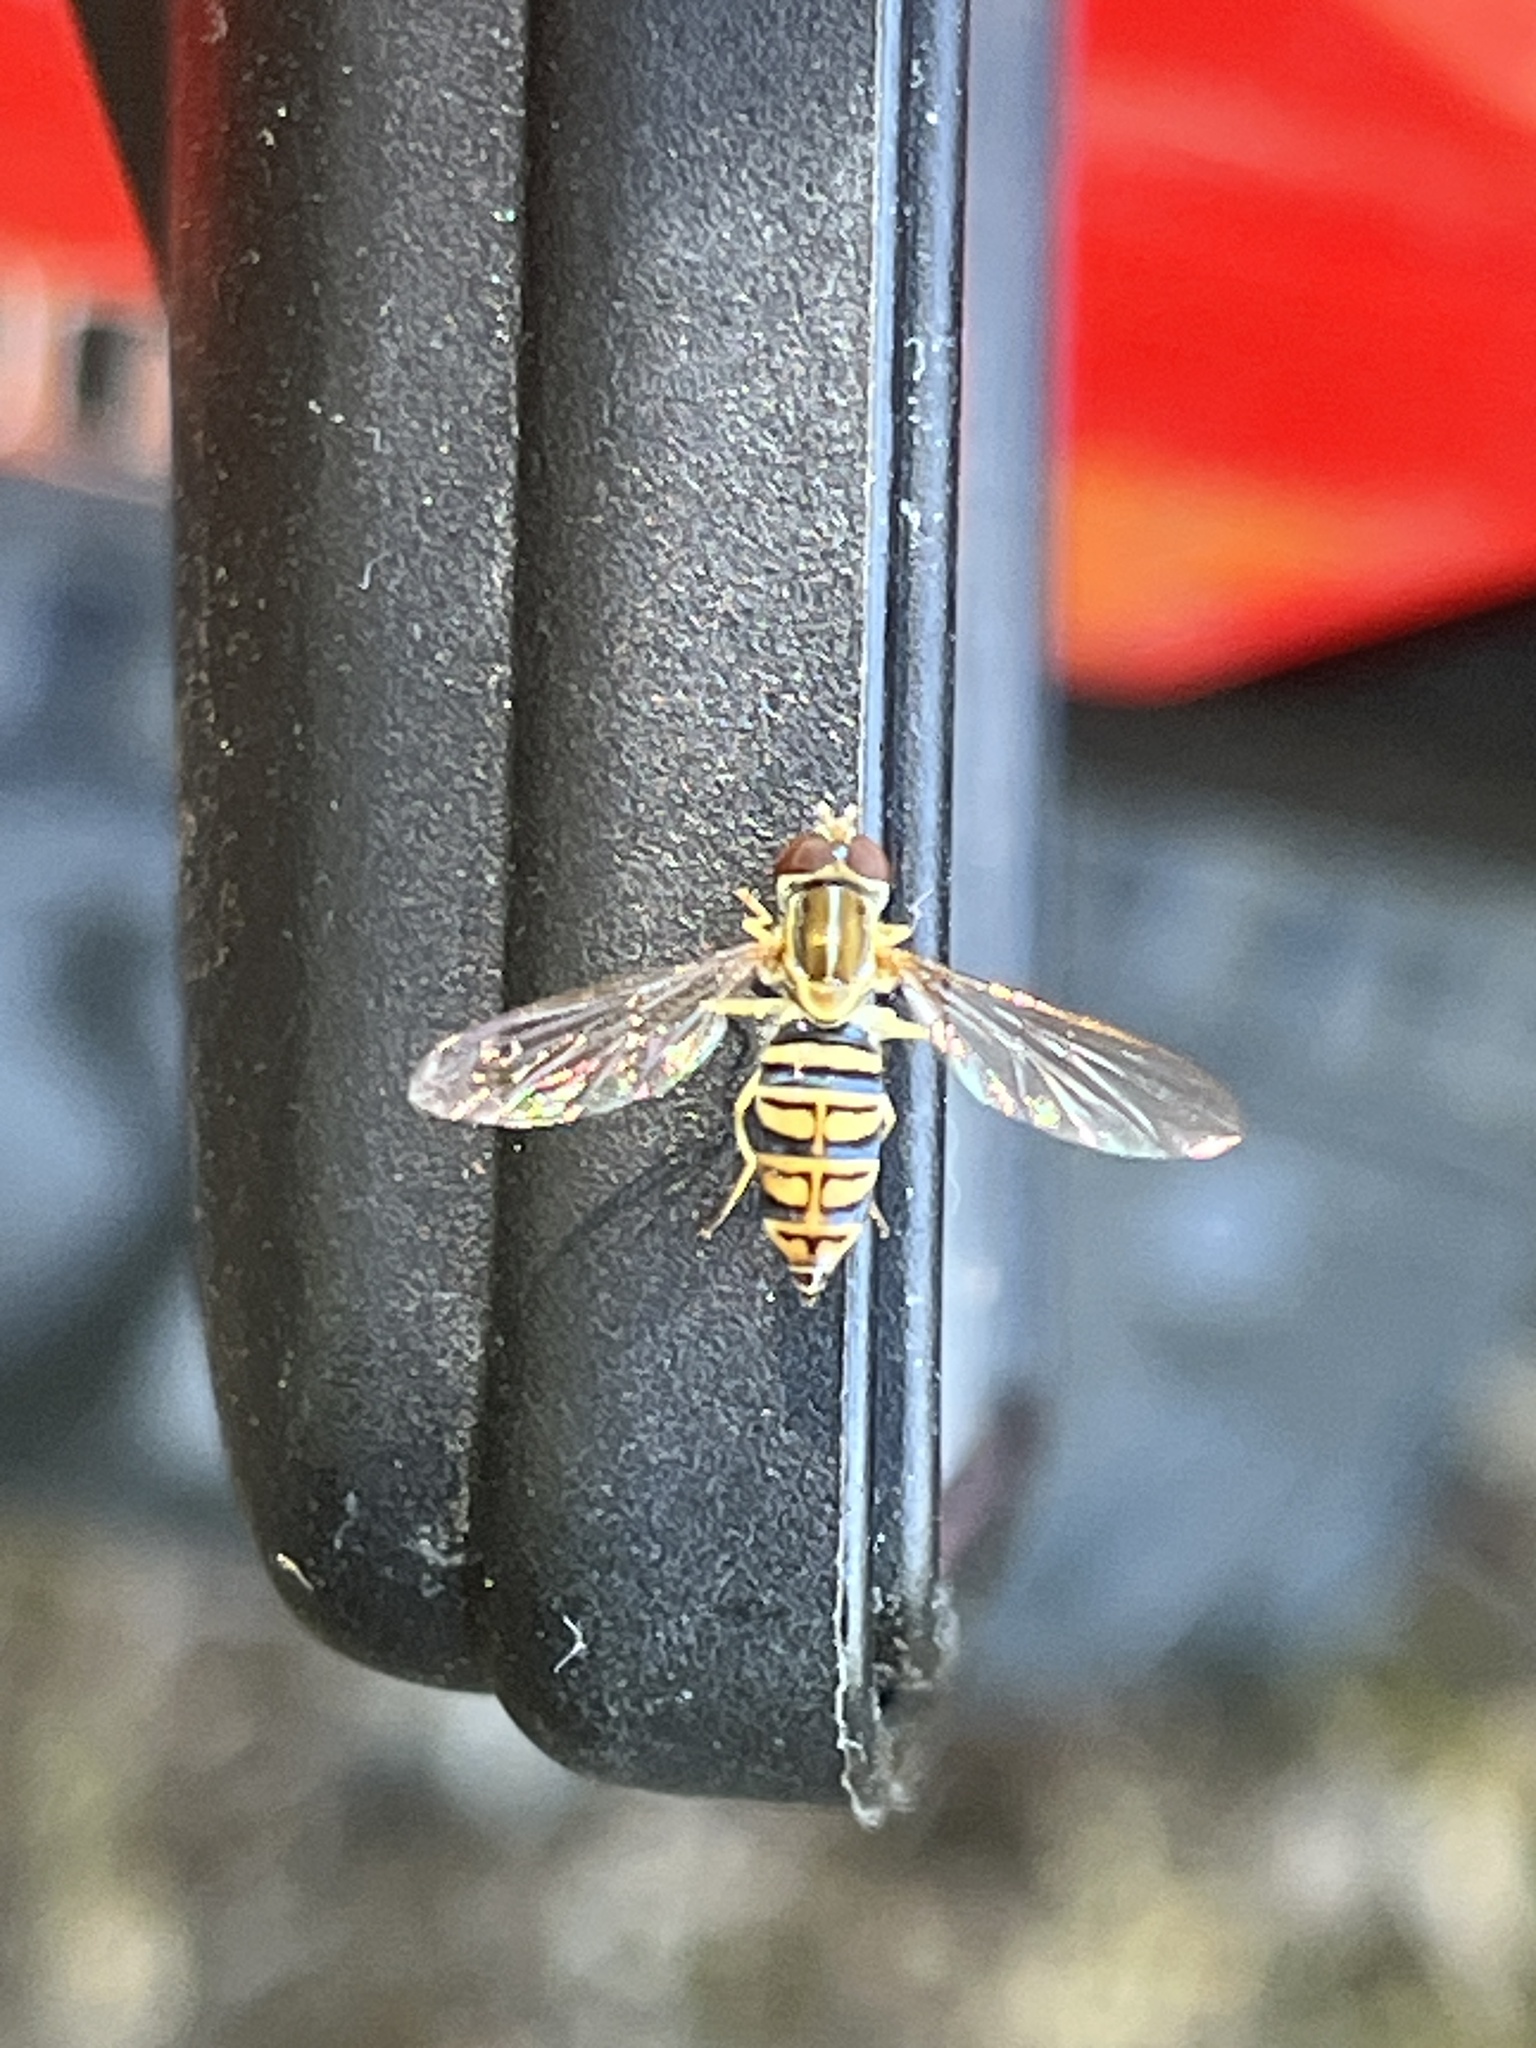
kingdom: Animalia
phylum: Arthropoda
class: Insecta
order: Diptera
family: Syrphidae
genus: Toxomerus
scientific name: Toxomerus politus
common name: Maize calligrapher
